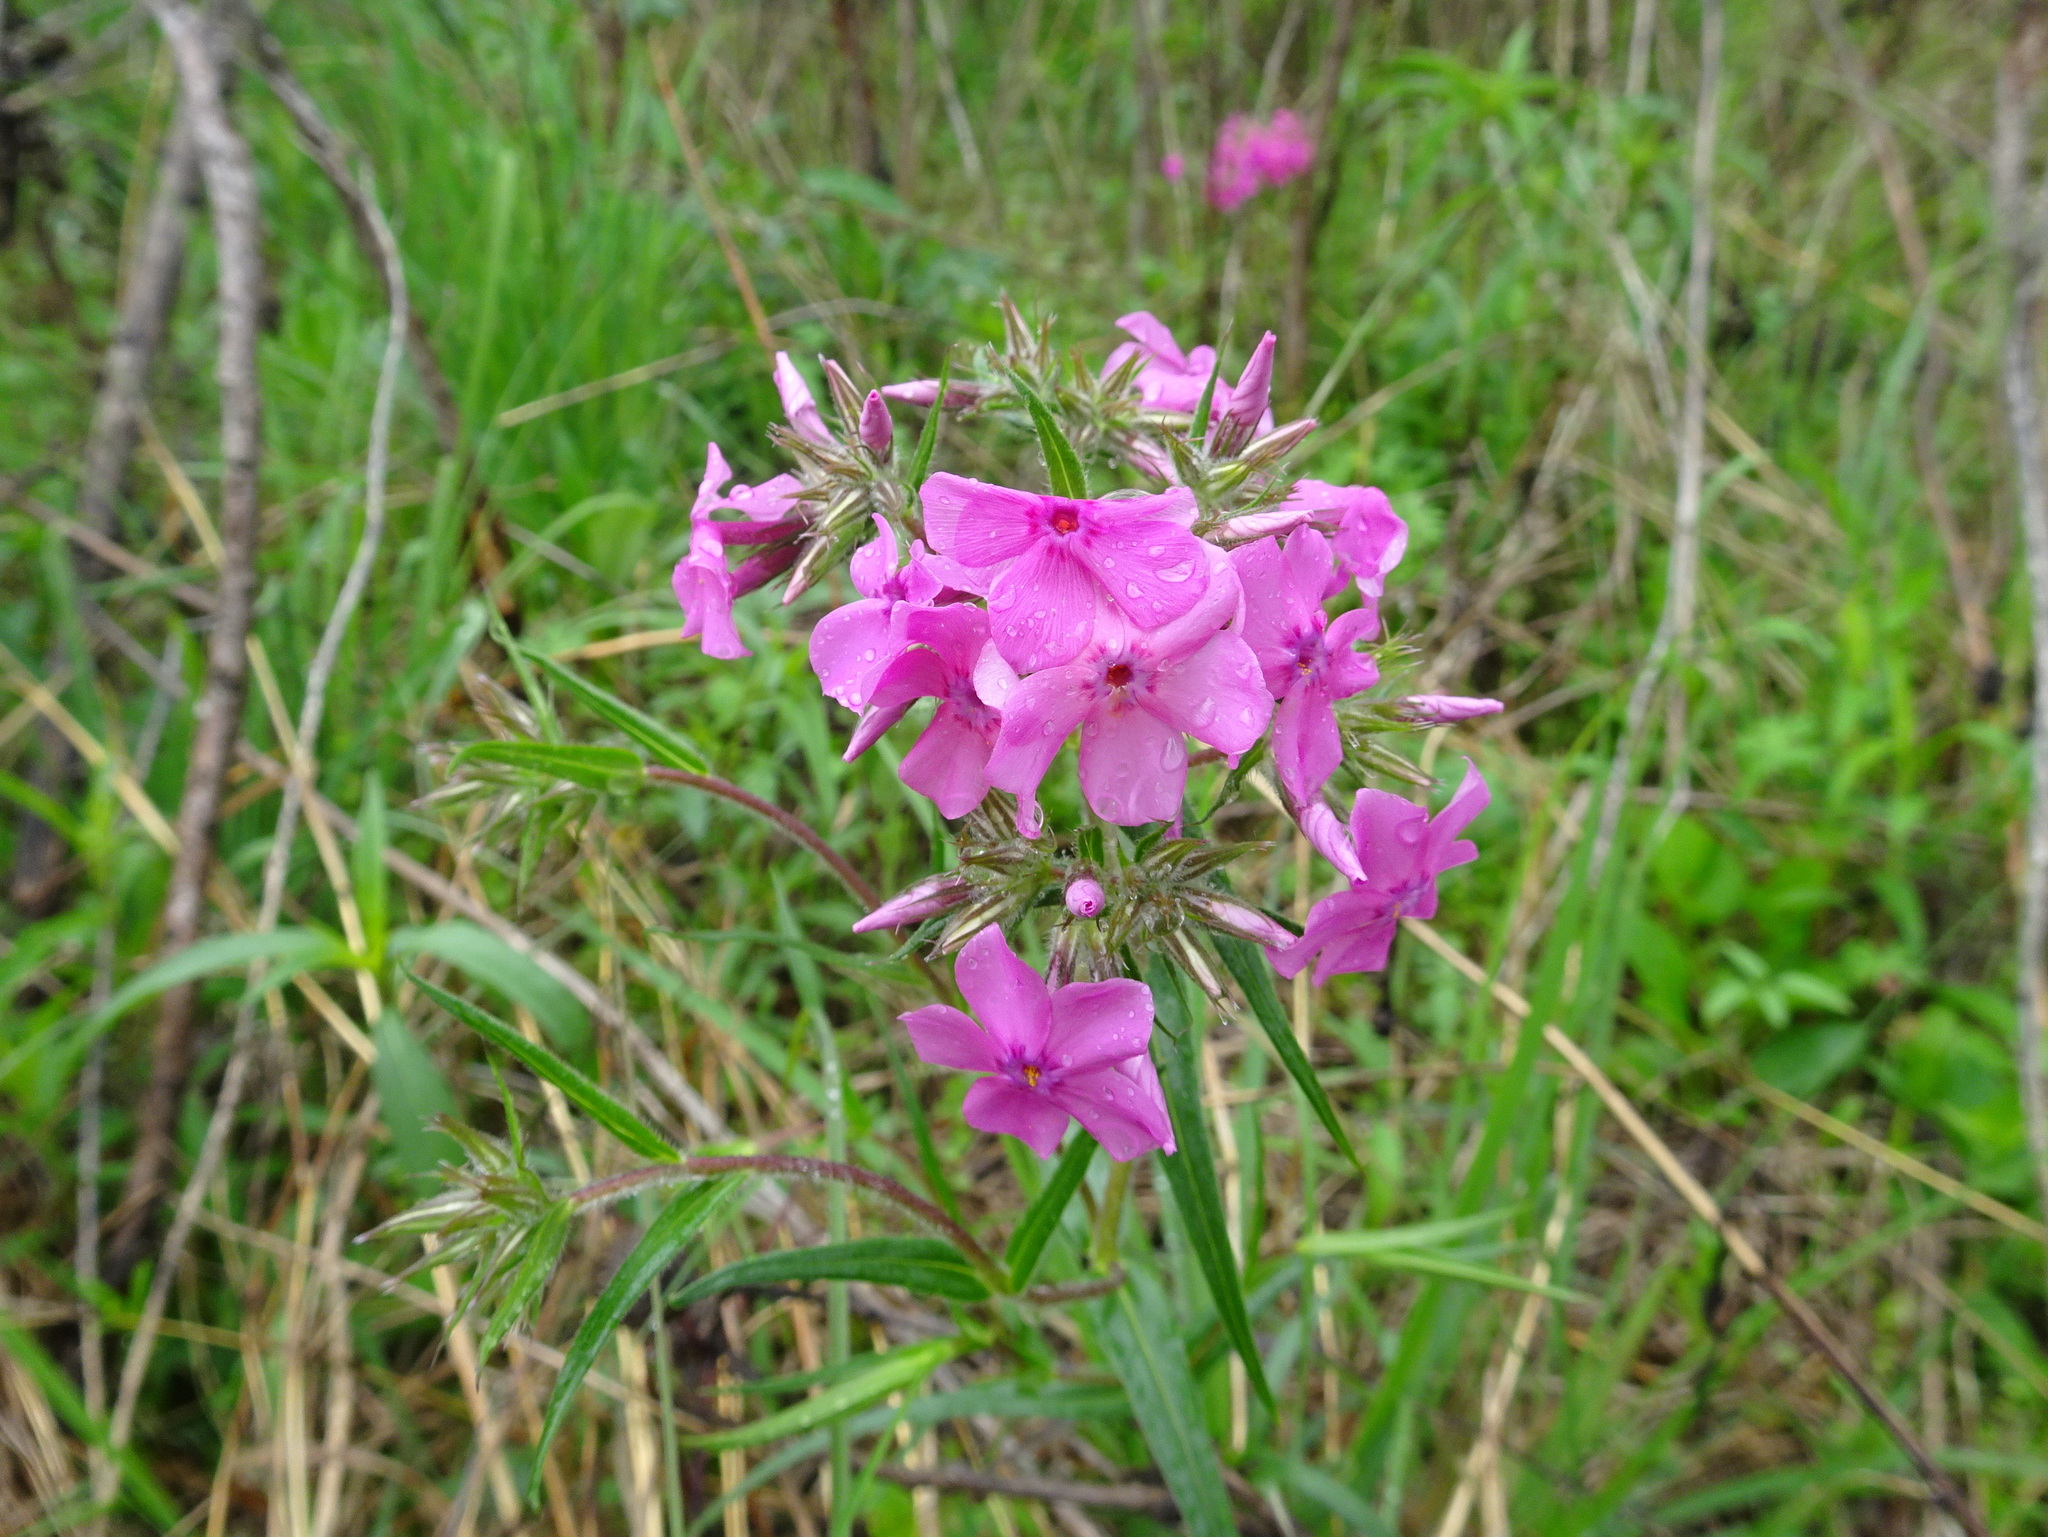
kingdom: Plantae
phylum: Tracheophyta
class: Magnoliopsida
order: Ericales
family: Polemoniaceae
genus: Phlox
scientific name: Phlox pilosa
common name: Prairie phlox
